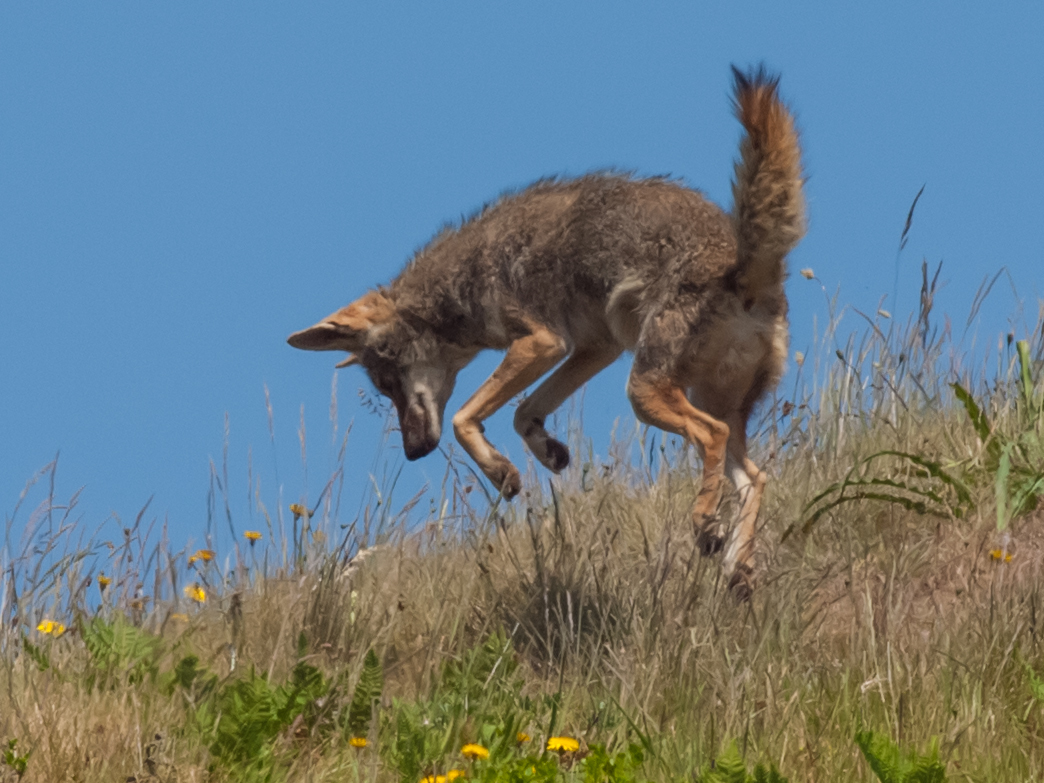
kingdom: Animalia
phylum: Chordata
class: Mammalia
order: Carnivora
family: Canidae
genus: Canis
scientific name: Canis latrans
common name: Coyote
